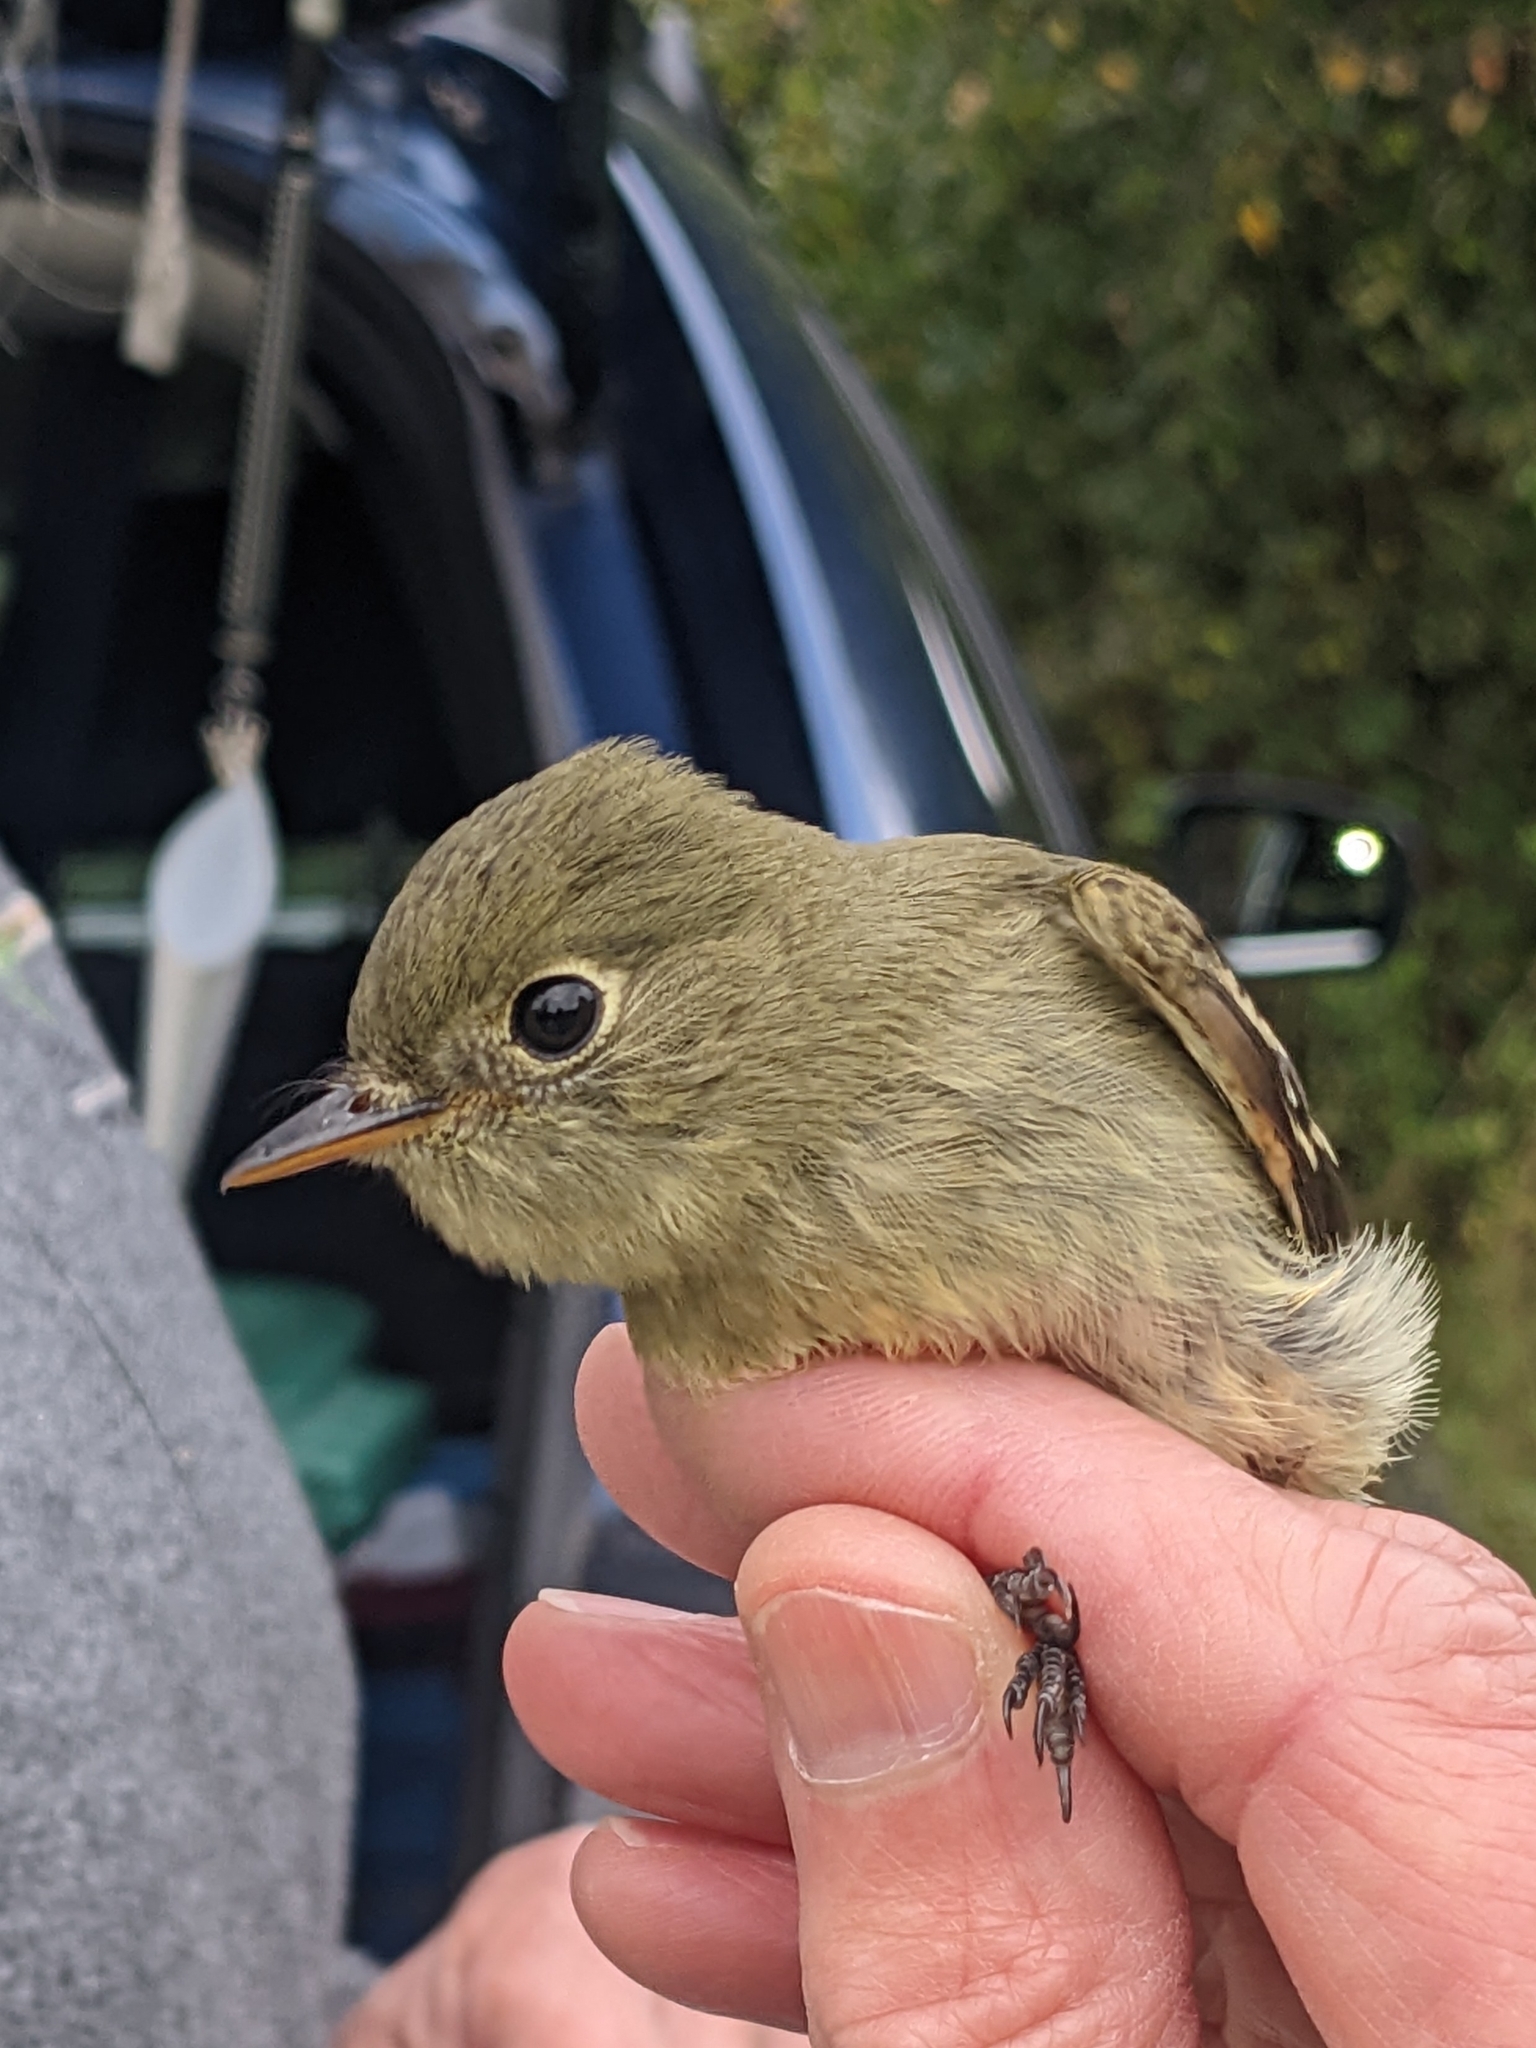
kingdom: Animalia
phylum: Chordata
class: Aves
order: Passeriformes
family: Tyrannidae
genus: Empidonax
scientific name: Empidonax flaviventris
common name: Yellow-bellied flycatcher
